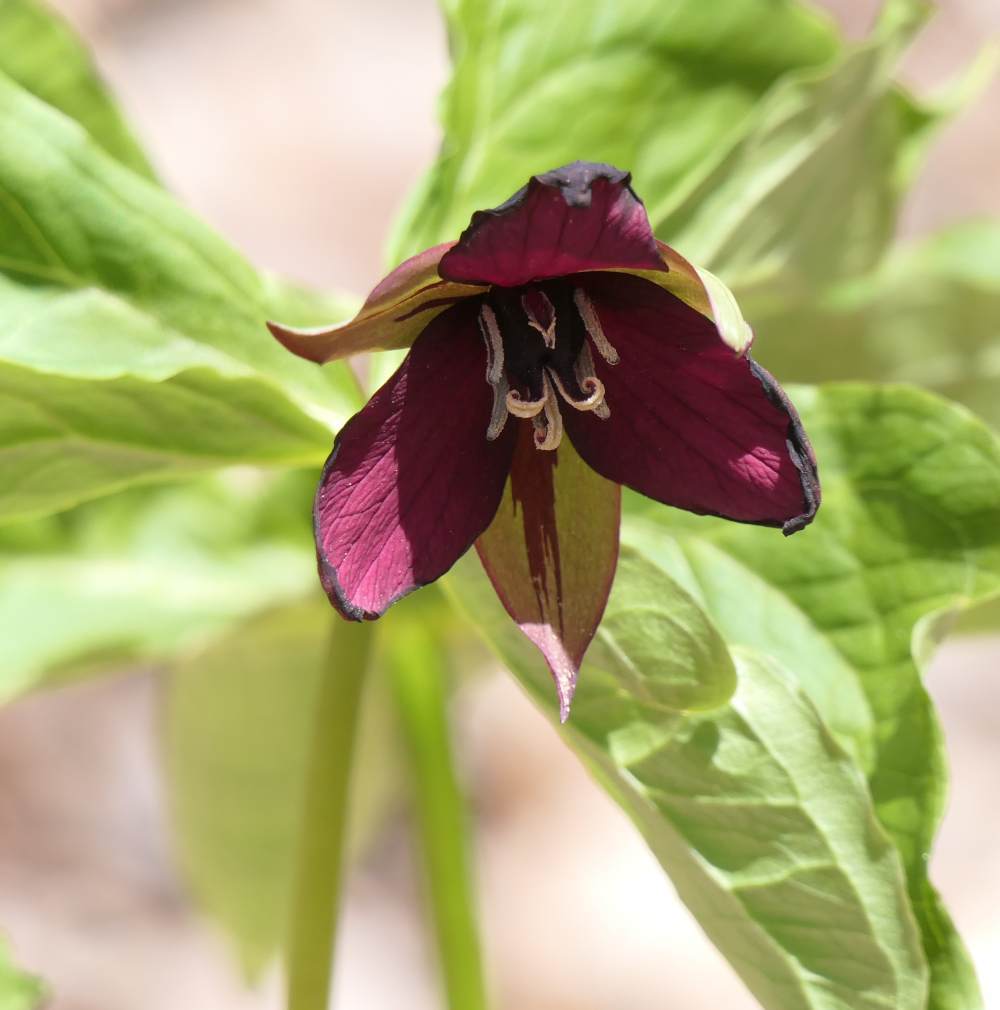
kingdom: Plantae
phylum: Tracheophyta
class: Liliopsida
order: Liliales
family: Melanthiaceae
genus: Trillium
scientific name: Trillium erectum
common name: Purple trillium
